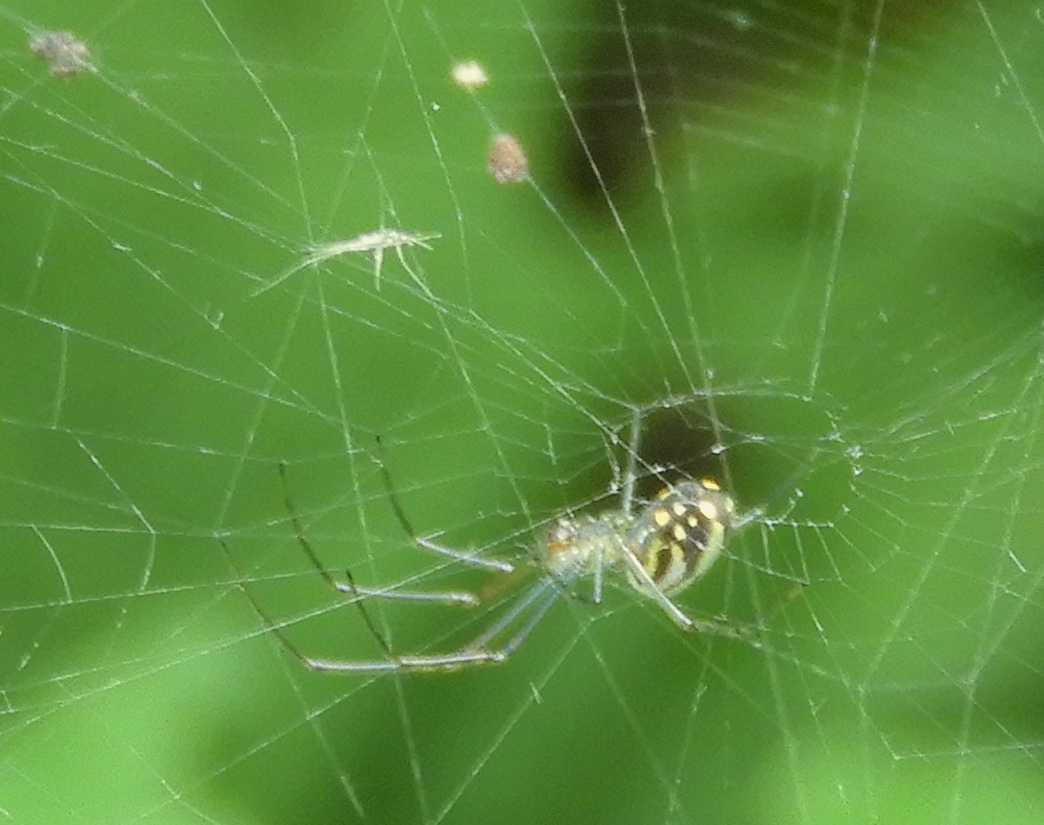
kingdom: Animalia
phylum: Arthropoda
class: Arachnida
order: Araneae
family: Tetragnathidae
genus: Leucauge
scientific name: Leucauge
